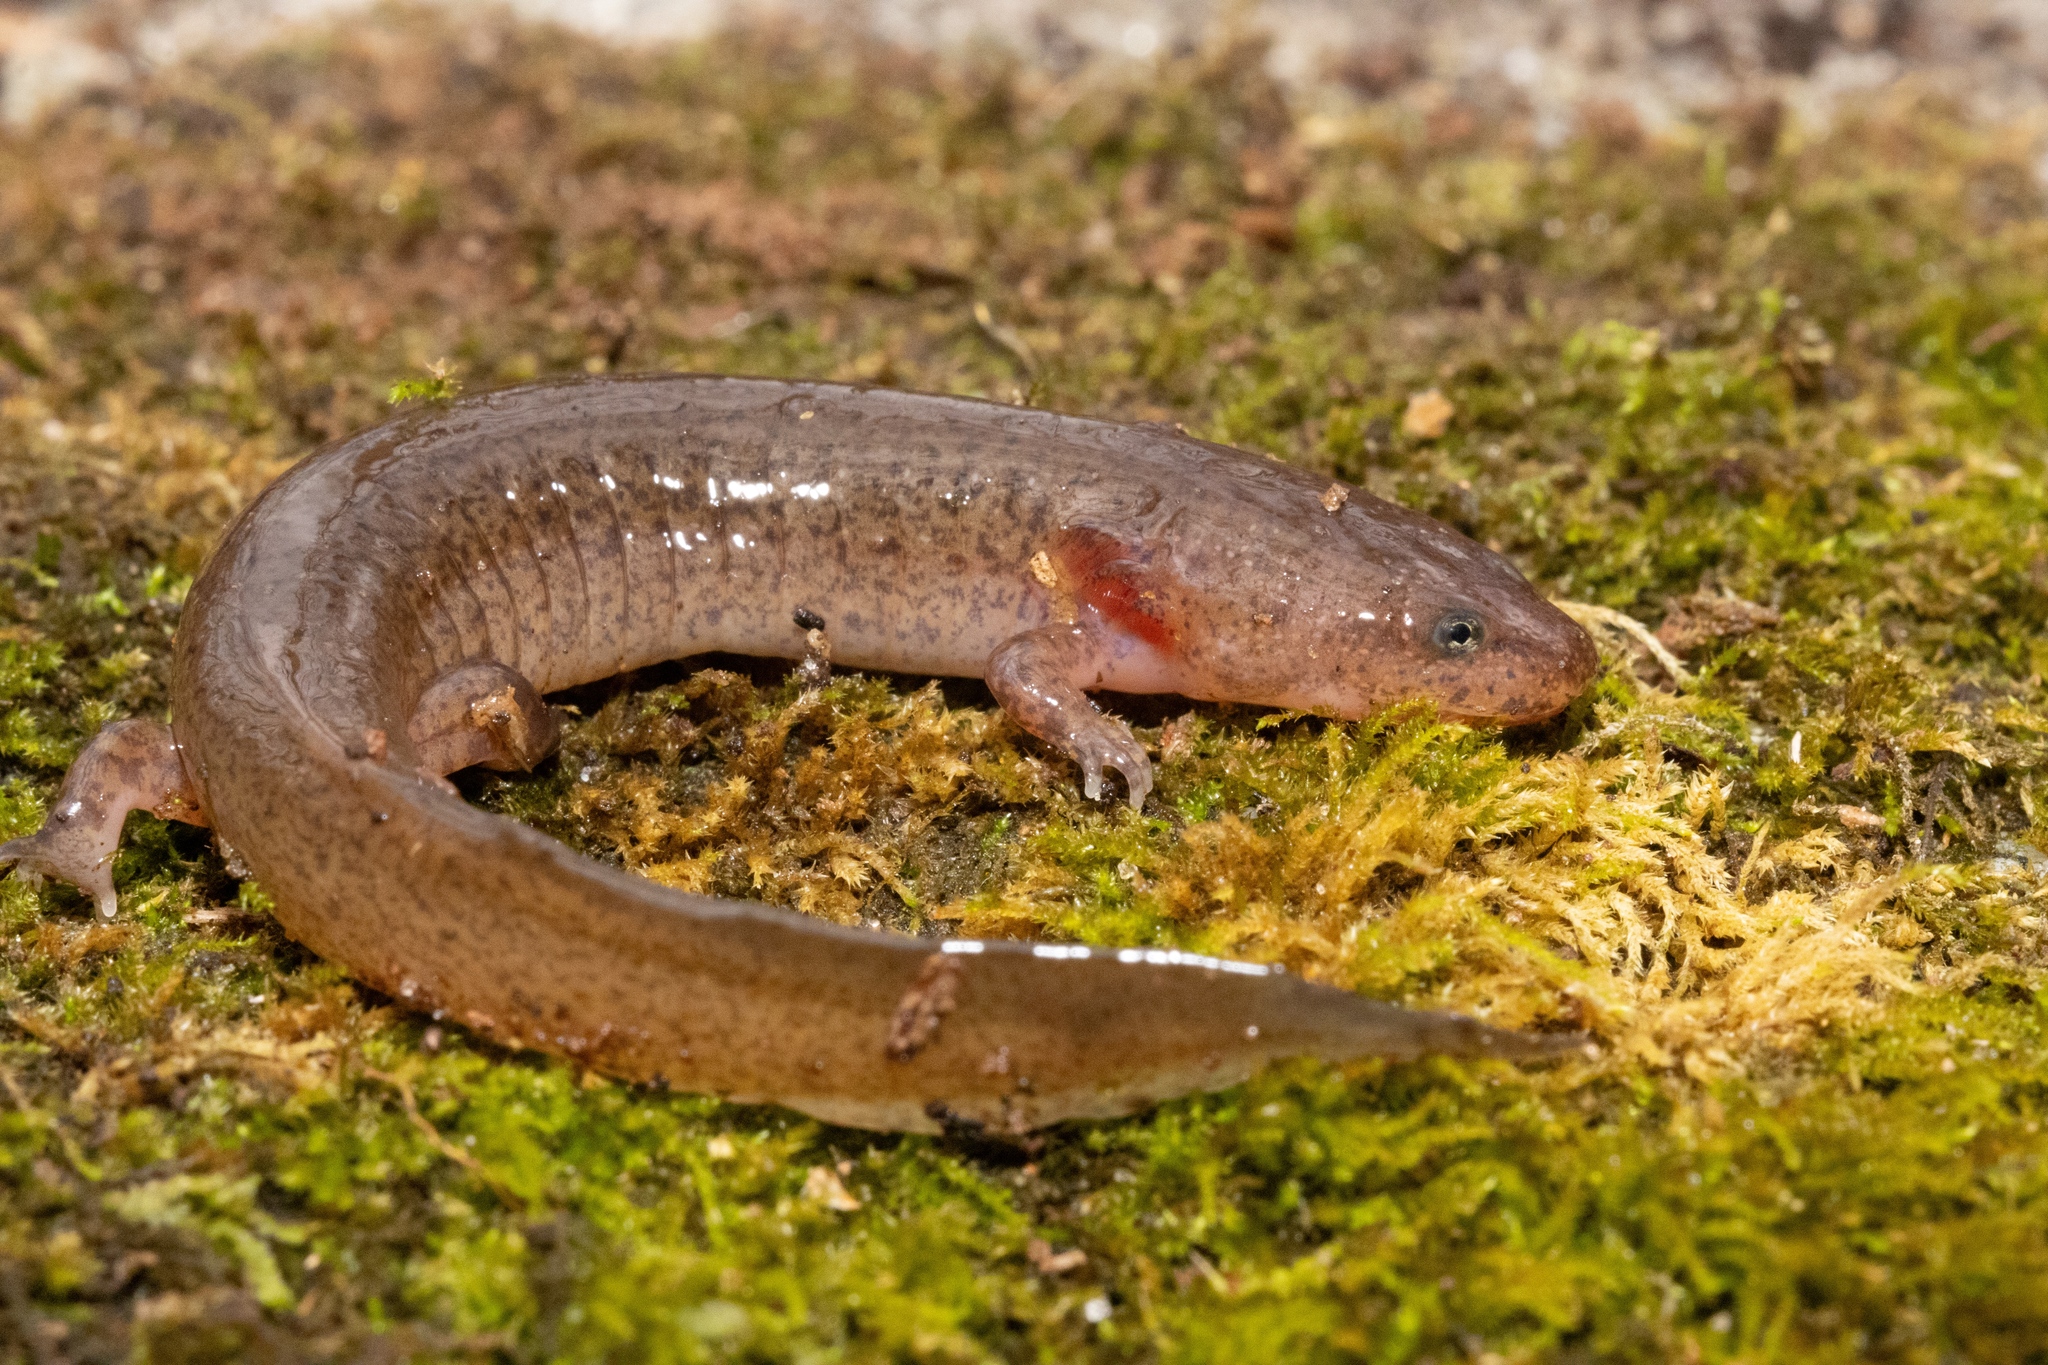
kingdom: Animalia
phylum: Chordata
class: Amphibia
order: Caudata
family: Plethodontidae
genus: Pseudotriton
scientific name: Pseudotriton ruber
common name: Red salamander
